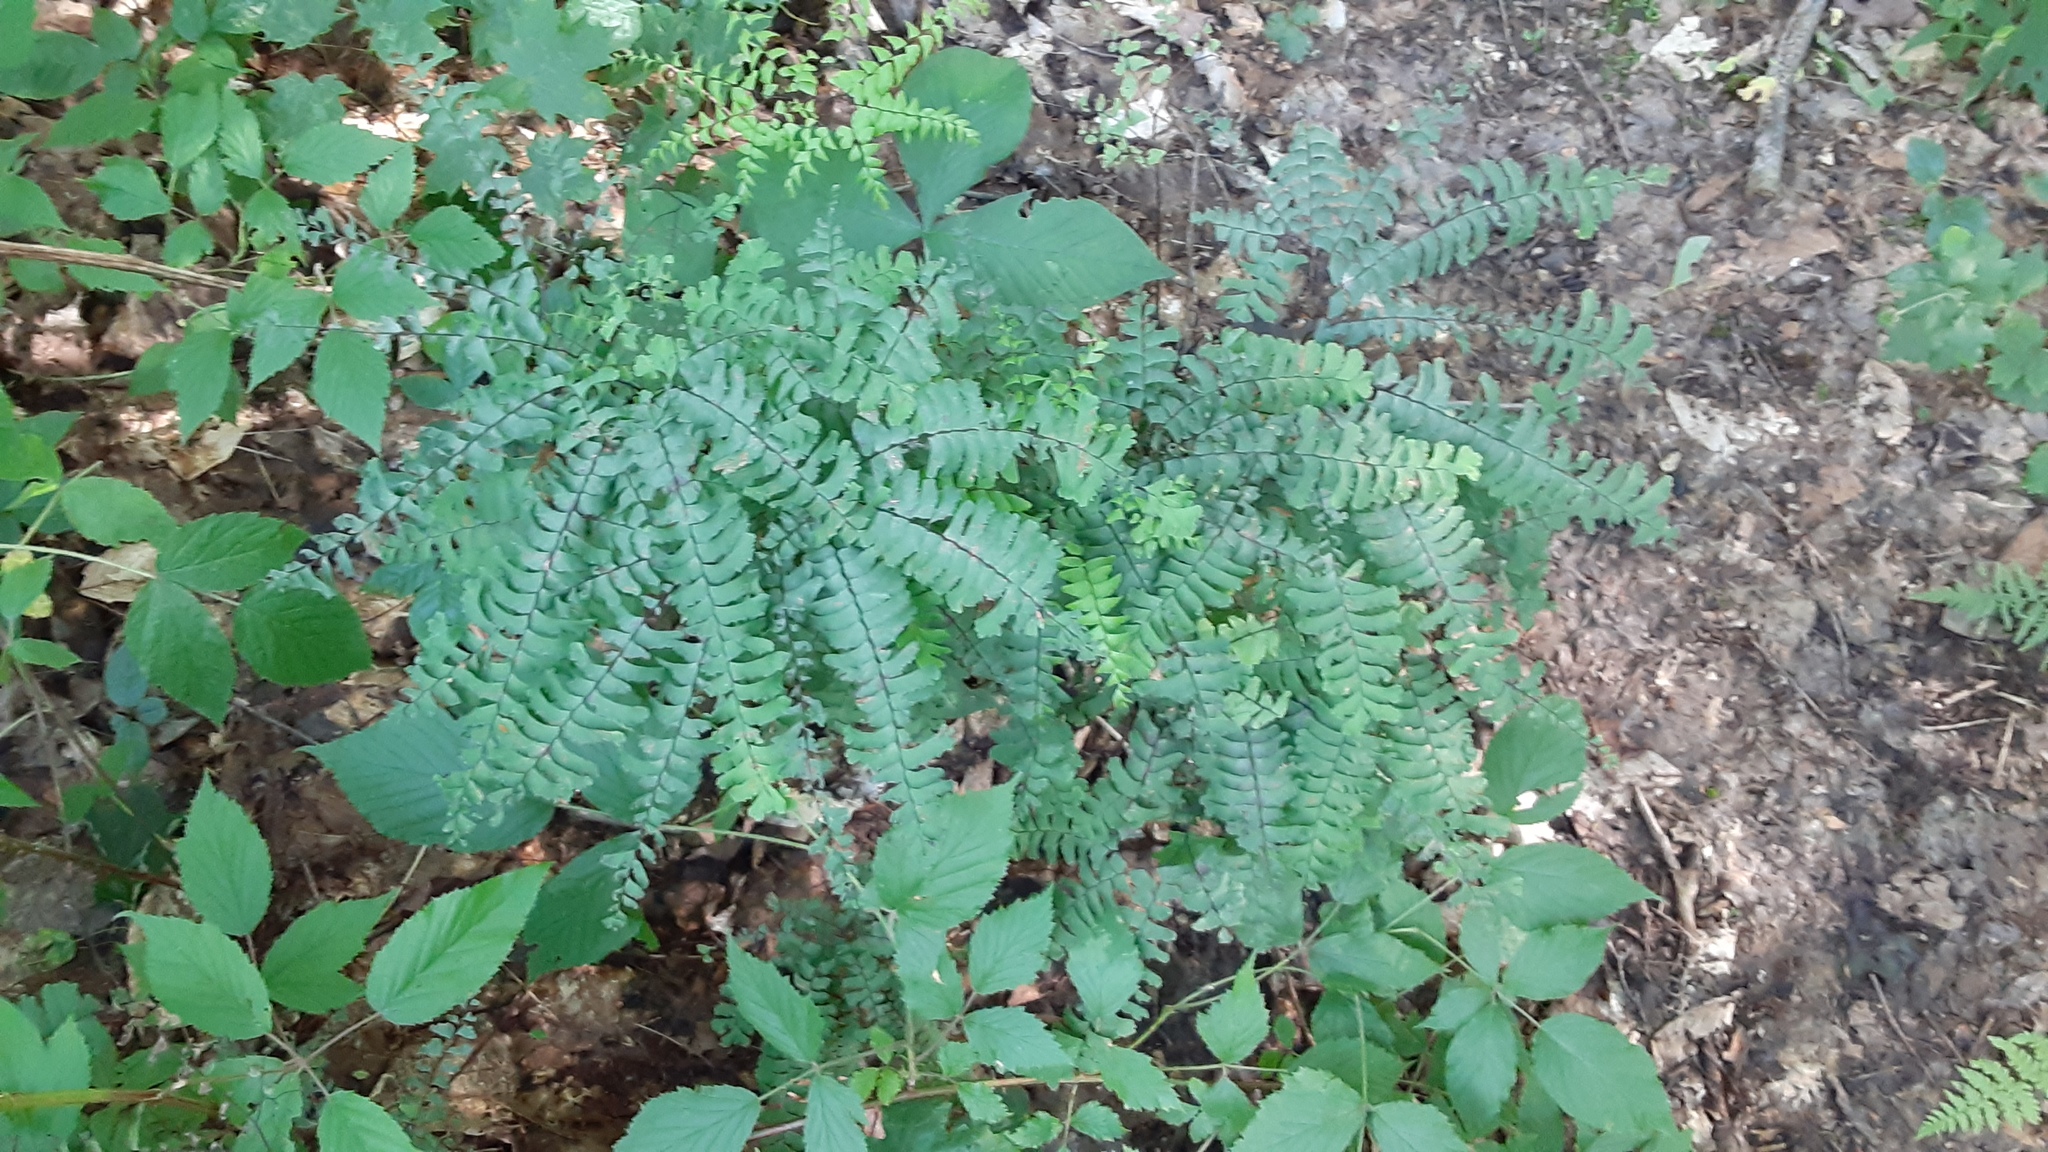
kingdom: Plantae
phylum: Tracheophyta
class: Polypodiopsida
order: Polypodiales
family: Pteridaceae
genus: Adiantum
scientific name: Adiantum pedatum
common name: Five-finger fern
